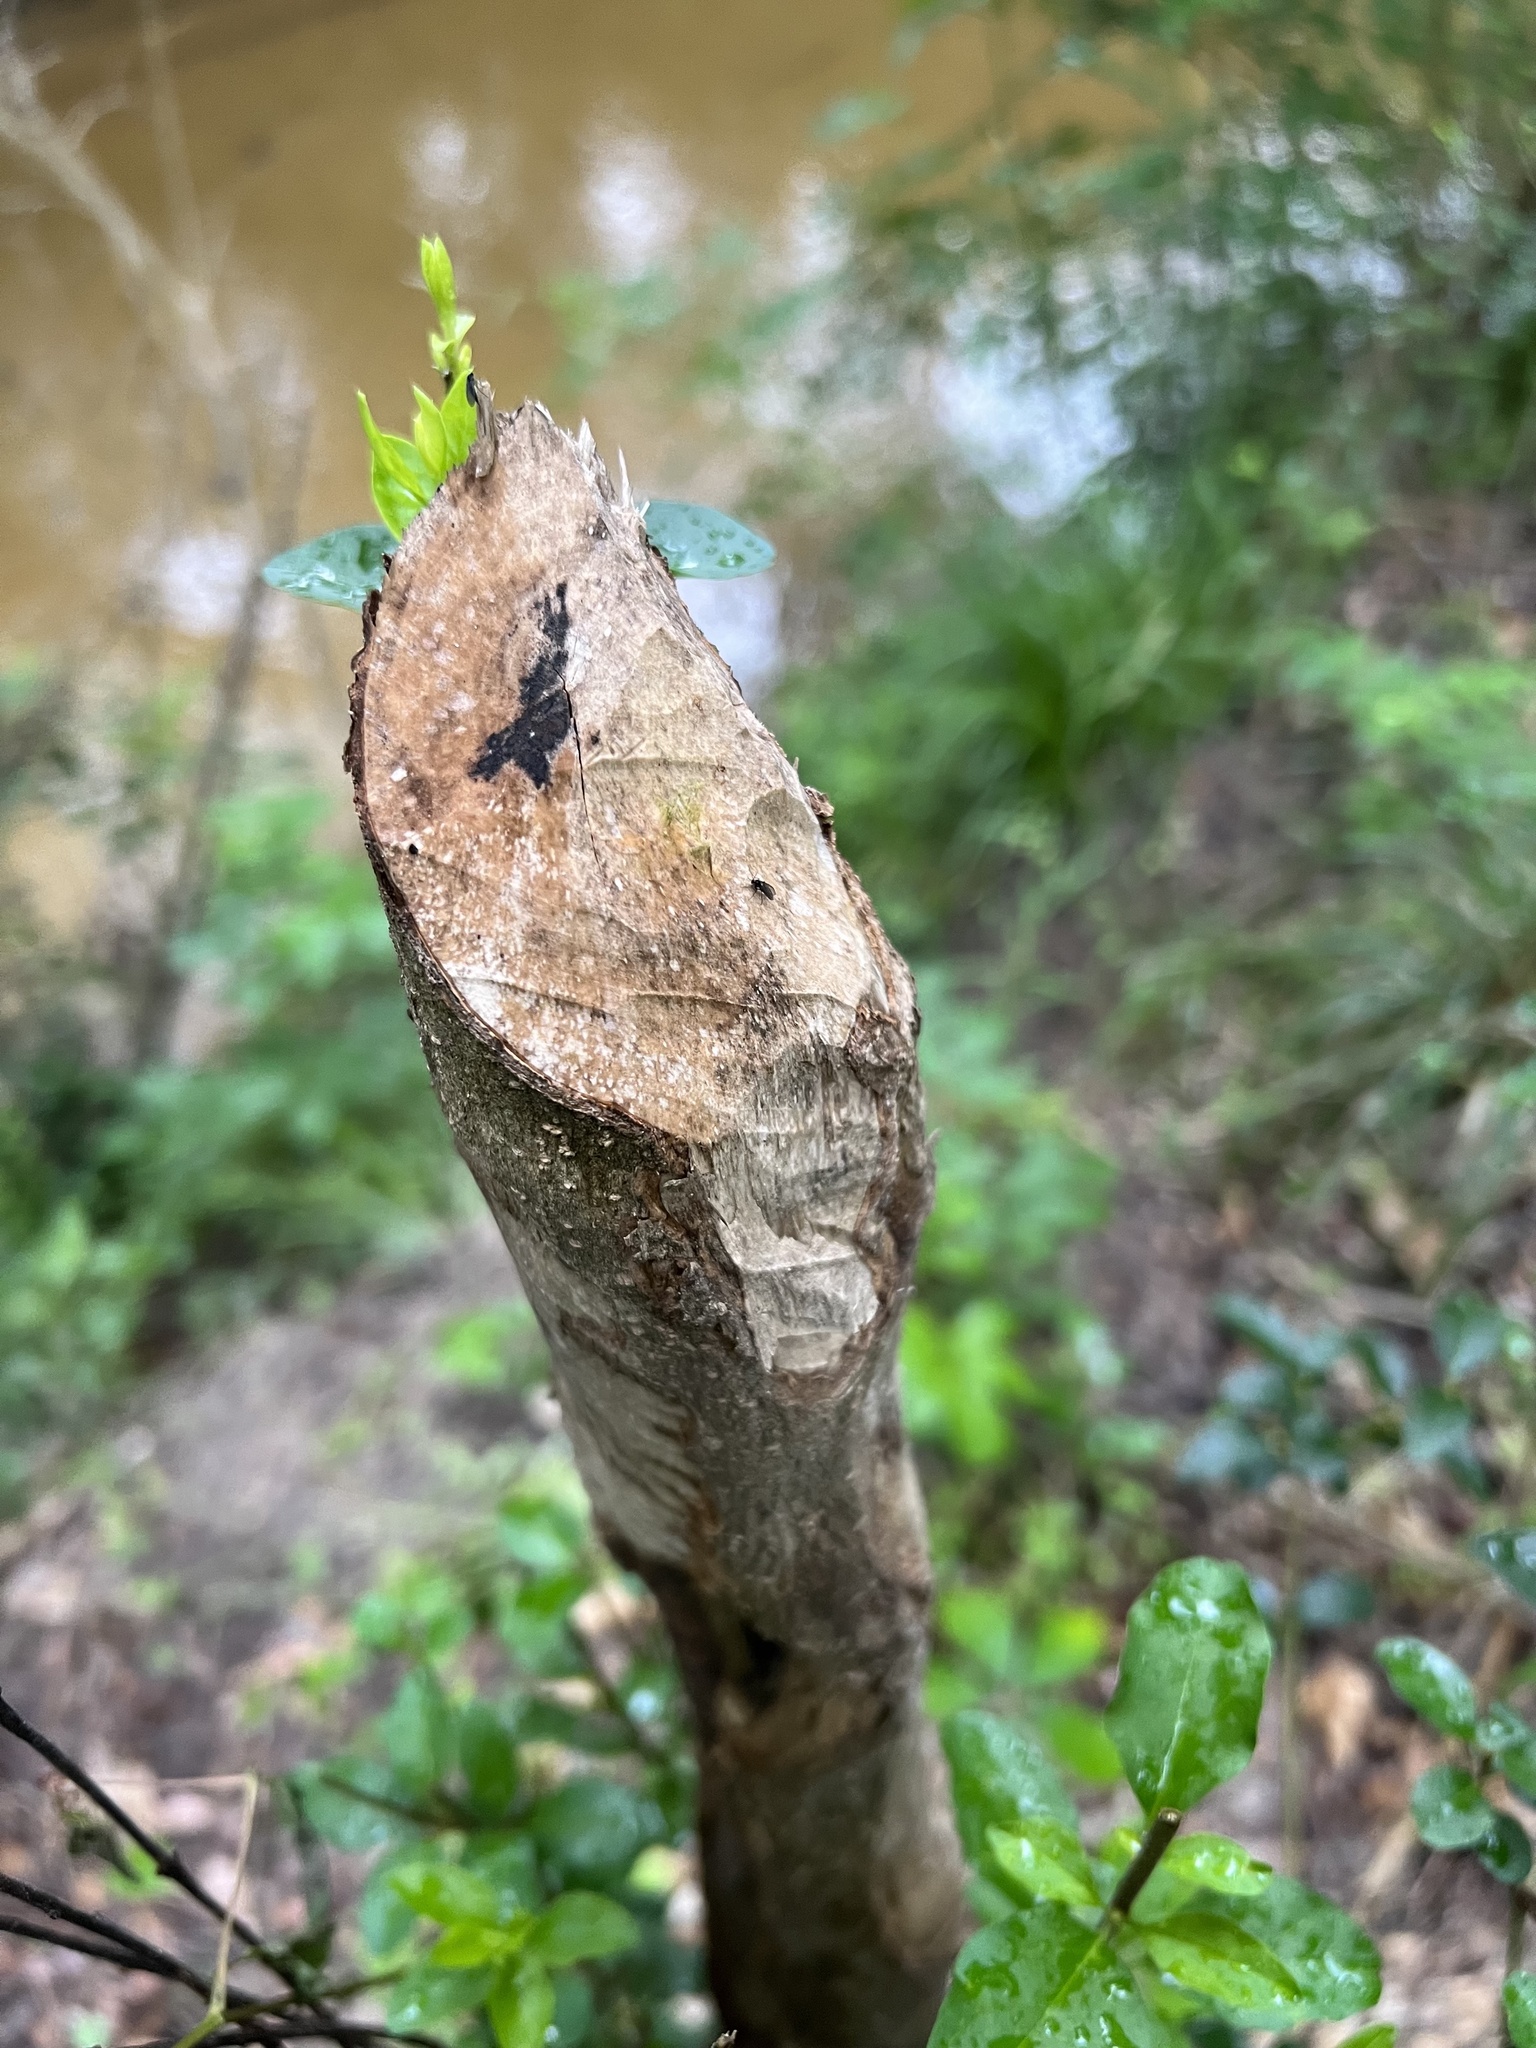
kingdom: Animalia
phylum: Chordata
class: Mammalia
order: Rodentia
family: Castoridae
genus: Castor
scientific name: Castor canadensis
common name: American beaver
